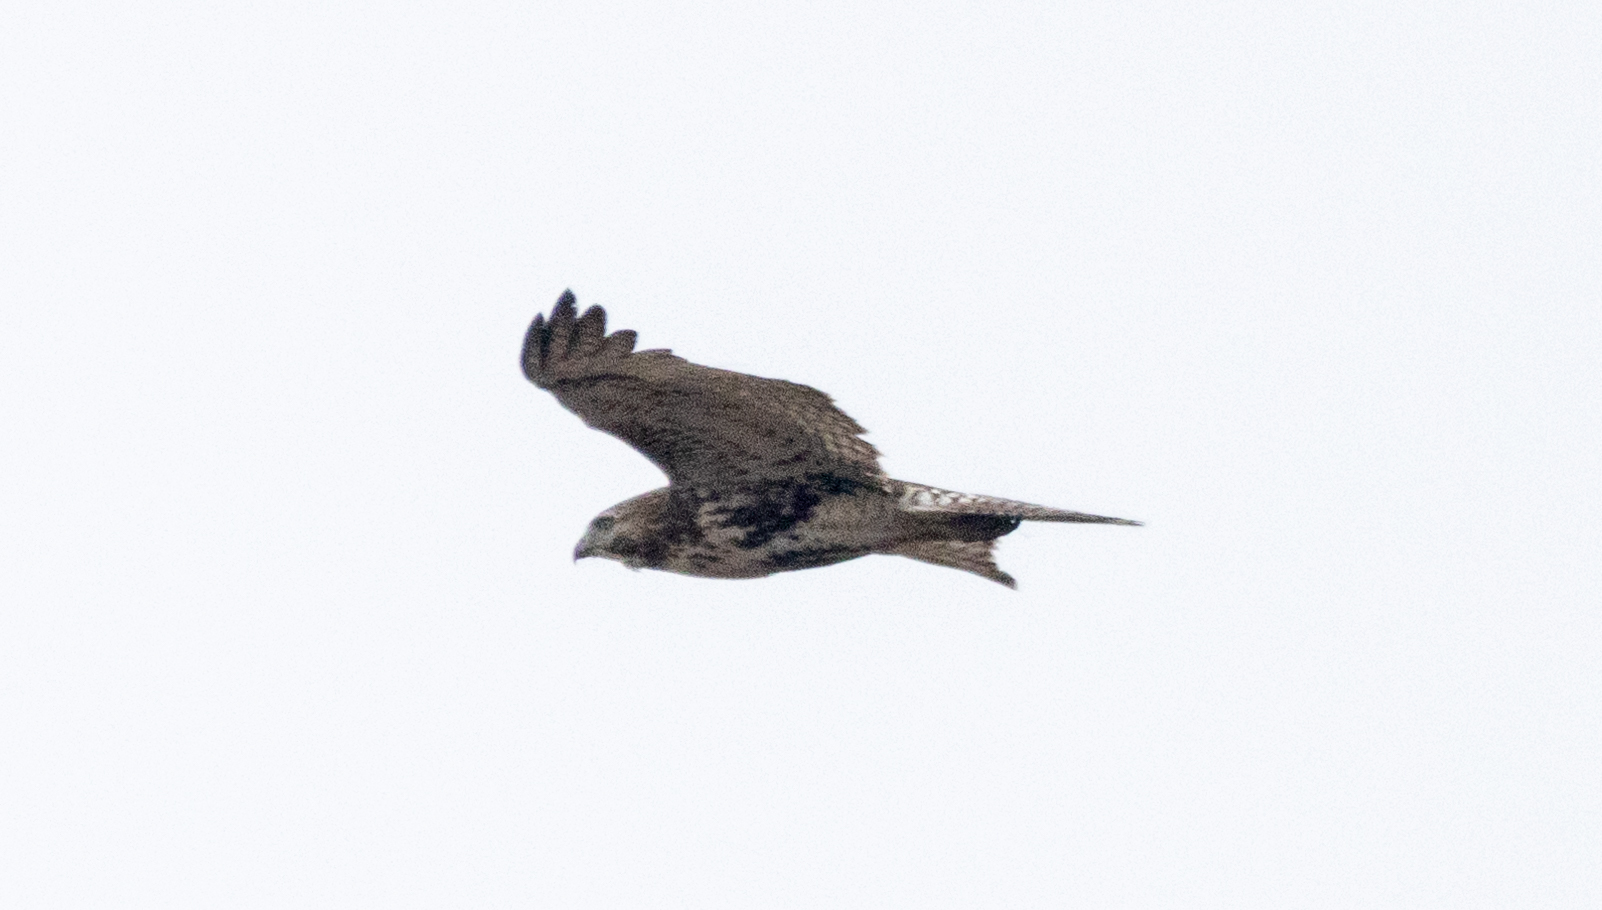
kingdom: Animalia
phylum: Chordata
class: Aves
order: Accipitriformes
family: Accipitridae
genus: Buteo
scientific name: Buteo jamaicensis
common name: Red-tailed hawk
